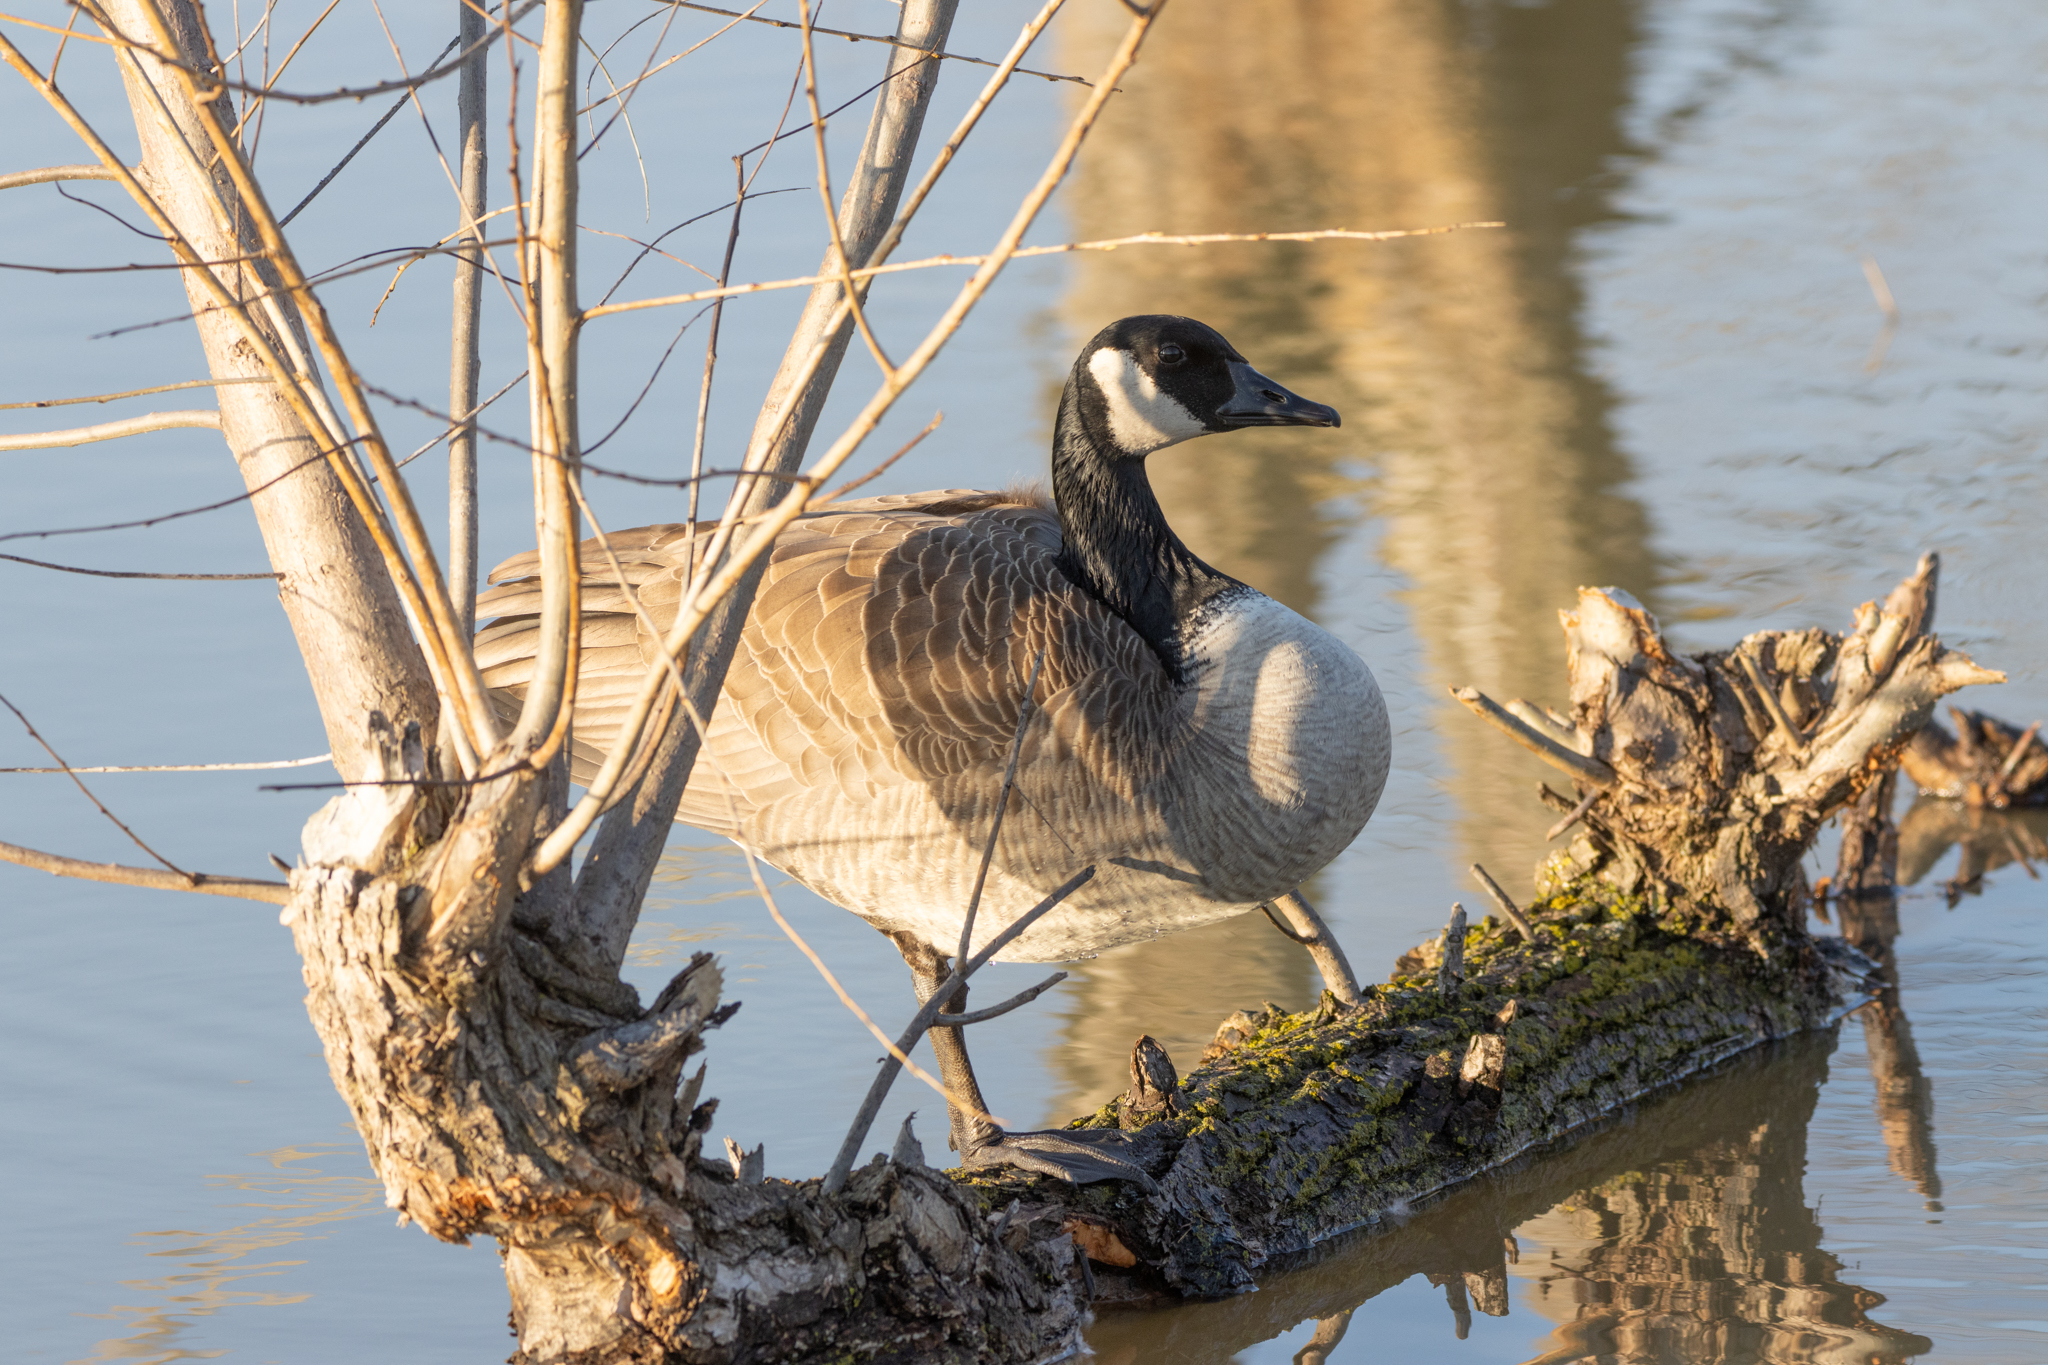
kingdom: Animalia
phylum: Chordata
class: Aves
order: Anseriformes
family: Anatidae
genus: Branta
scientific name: Branta canadensis
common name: Canada goose
